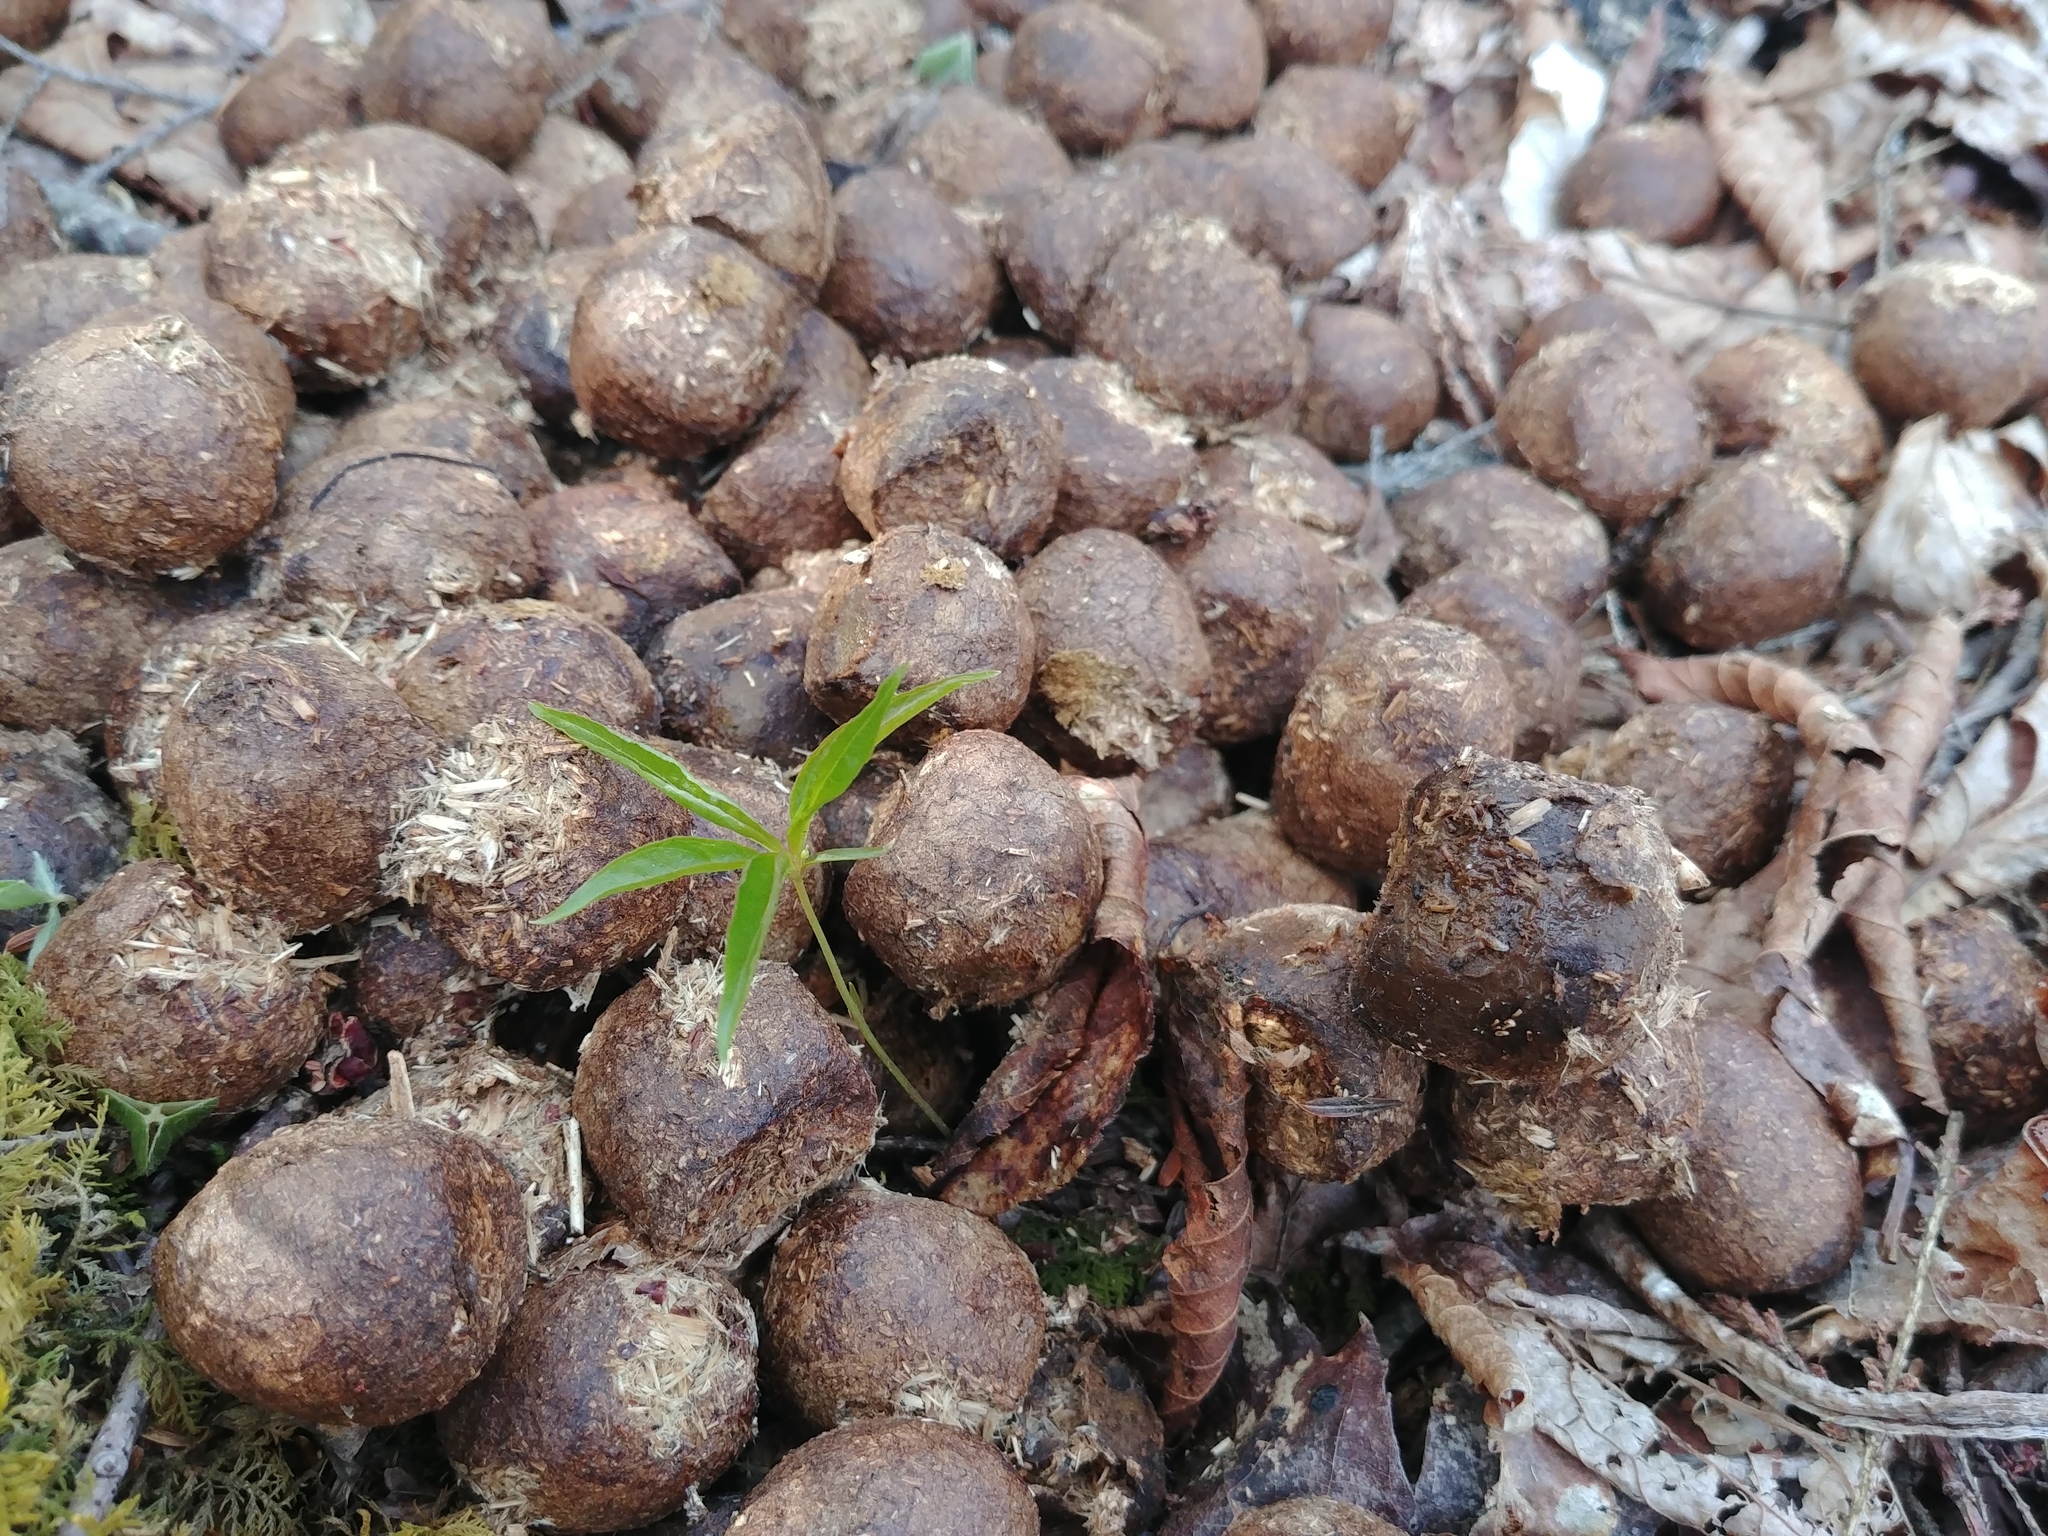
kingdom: Animalia
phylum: Chordata
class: Mammalia
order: Artiodactyla
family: Cervidae
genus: Alces
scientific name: Alces alces
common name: Moose
